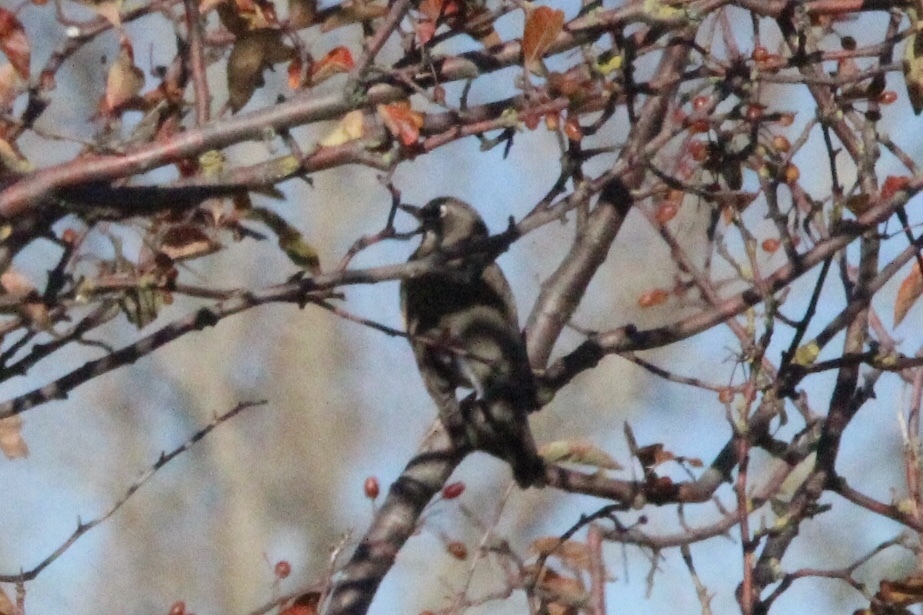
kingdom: Animalia
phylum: Chordata
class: Aves
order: Passeriformes
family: Turdidae
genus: Turdus
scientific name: Turdus migratorius
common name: American robin
